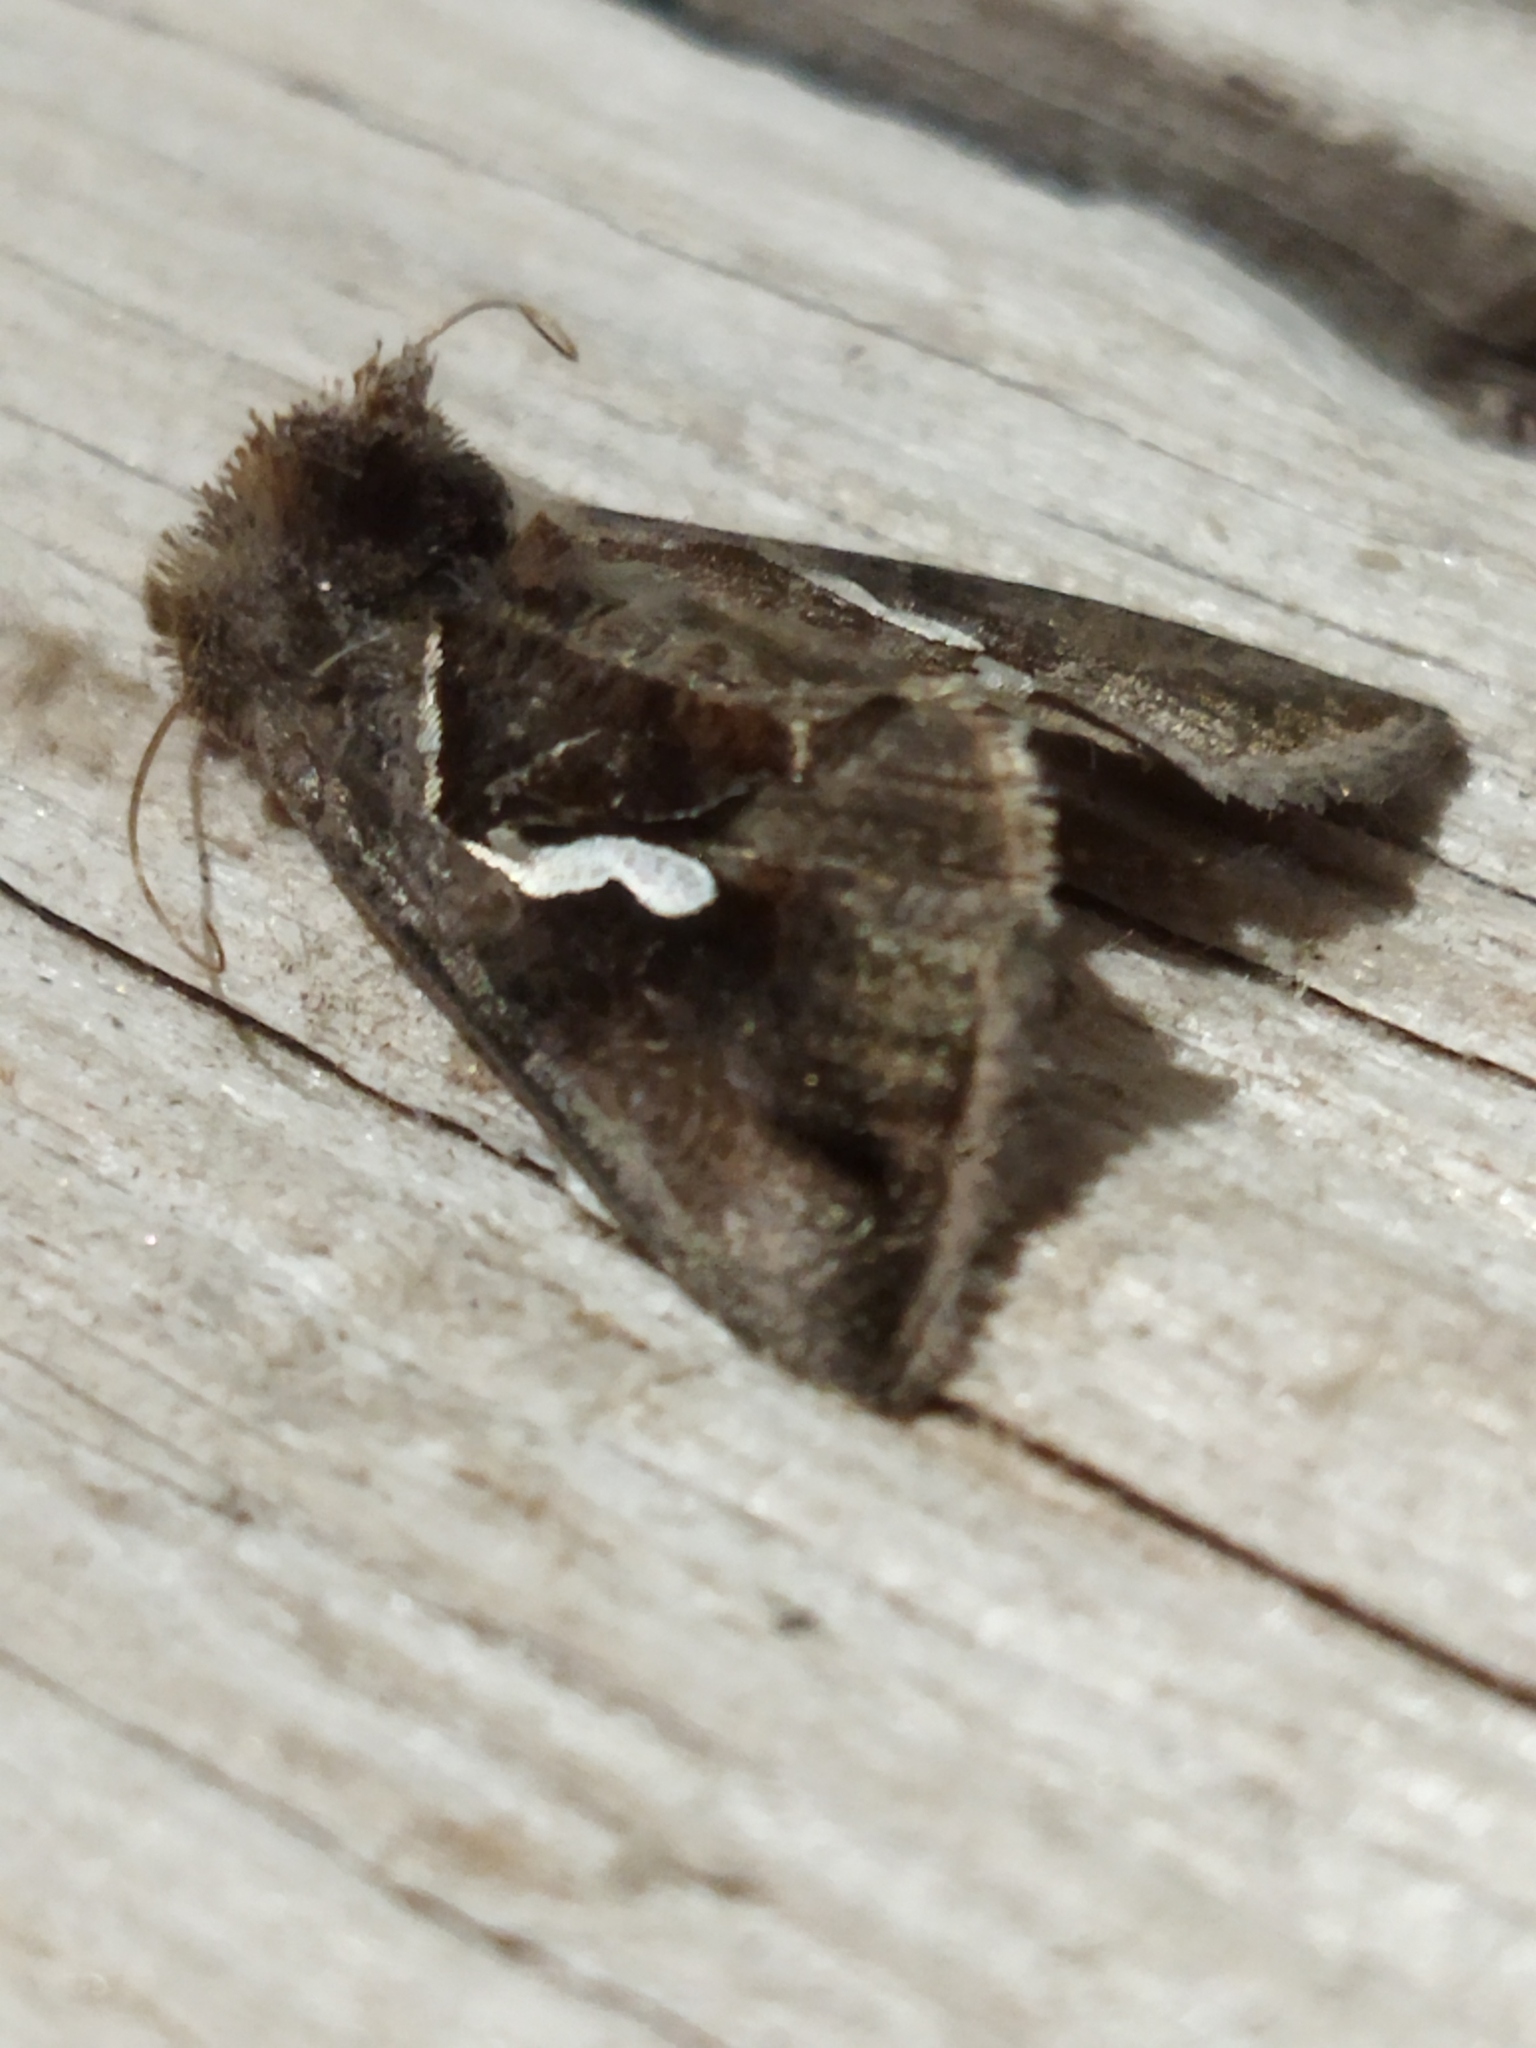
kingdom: Animalia
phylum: Arthropoda
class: Insecta
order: Lepidoptera
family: Noctuidae
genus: Macdunnoughia
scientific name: Macdunnoughia confusa
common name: Dewick's plusia
